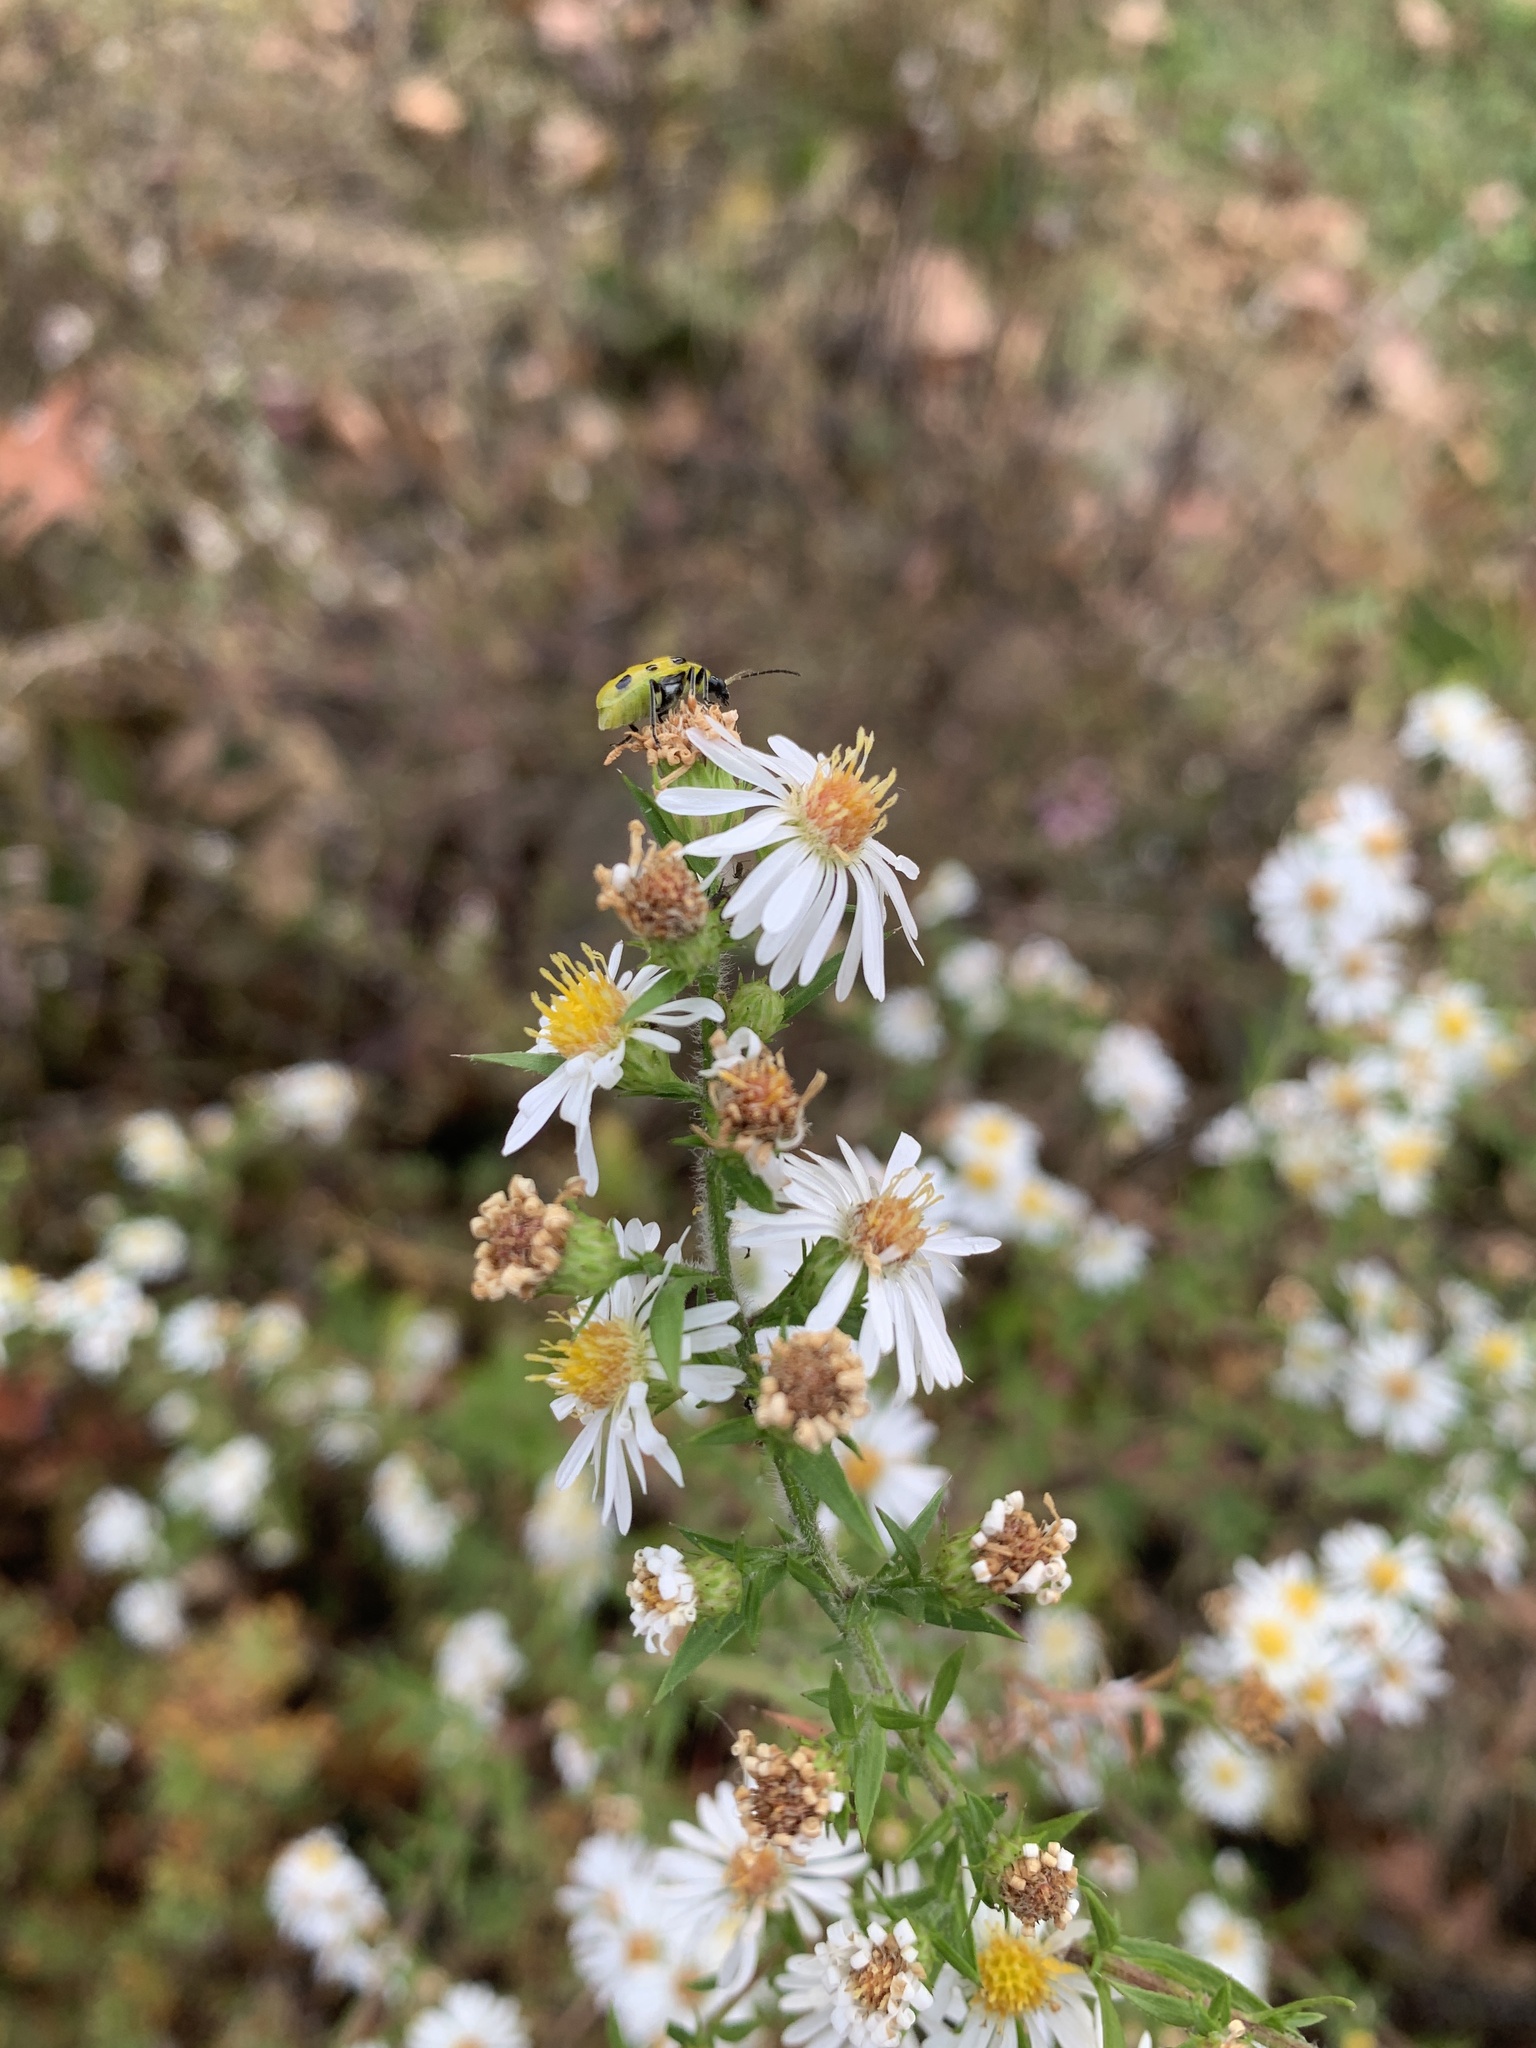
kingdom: Animalia
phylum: Arthropoda
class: Insecta
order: Coleoptera
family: Chrysomelidae
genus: Diabrotica
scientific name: Diabrotica undecimpunctata
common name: Spotted cucumber beetle
